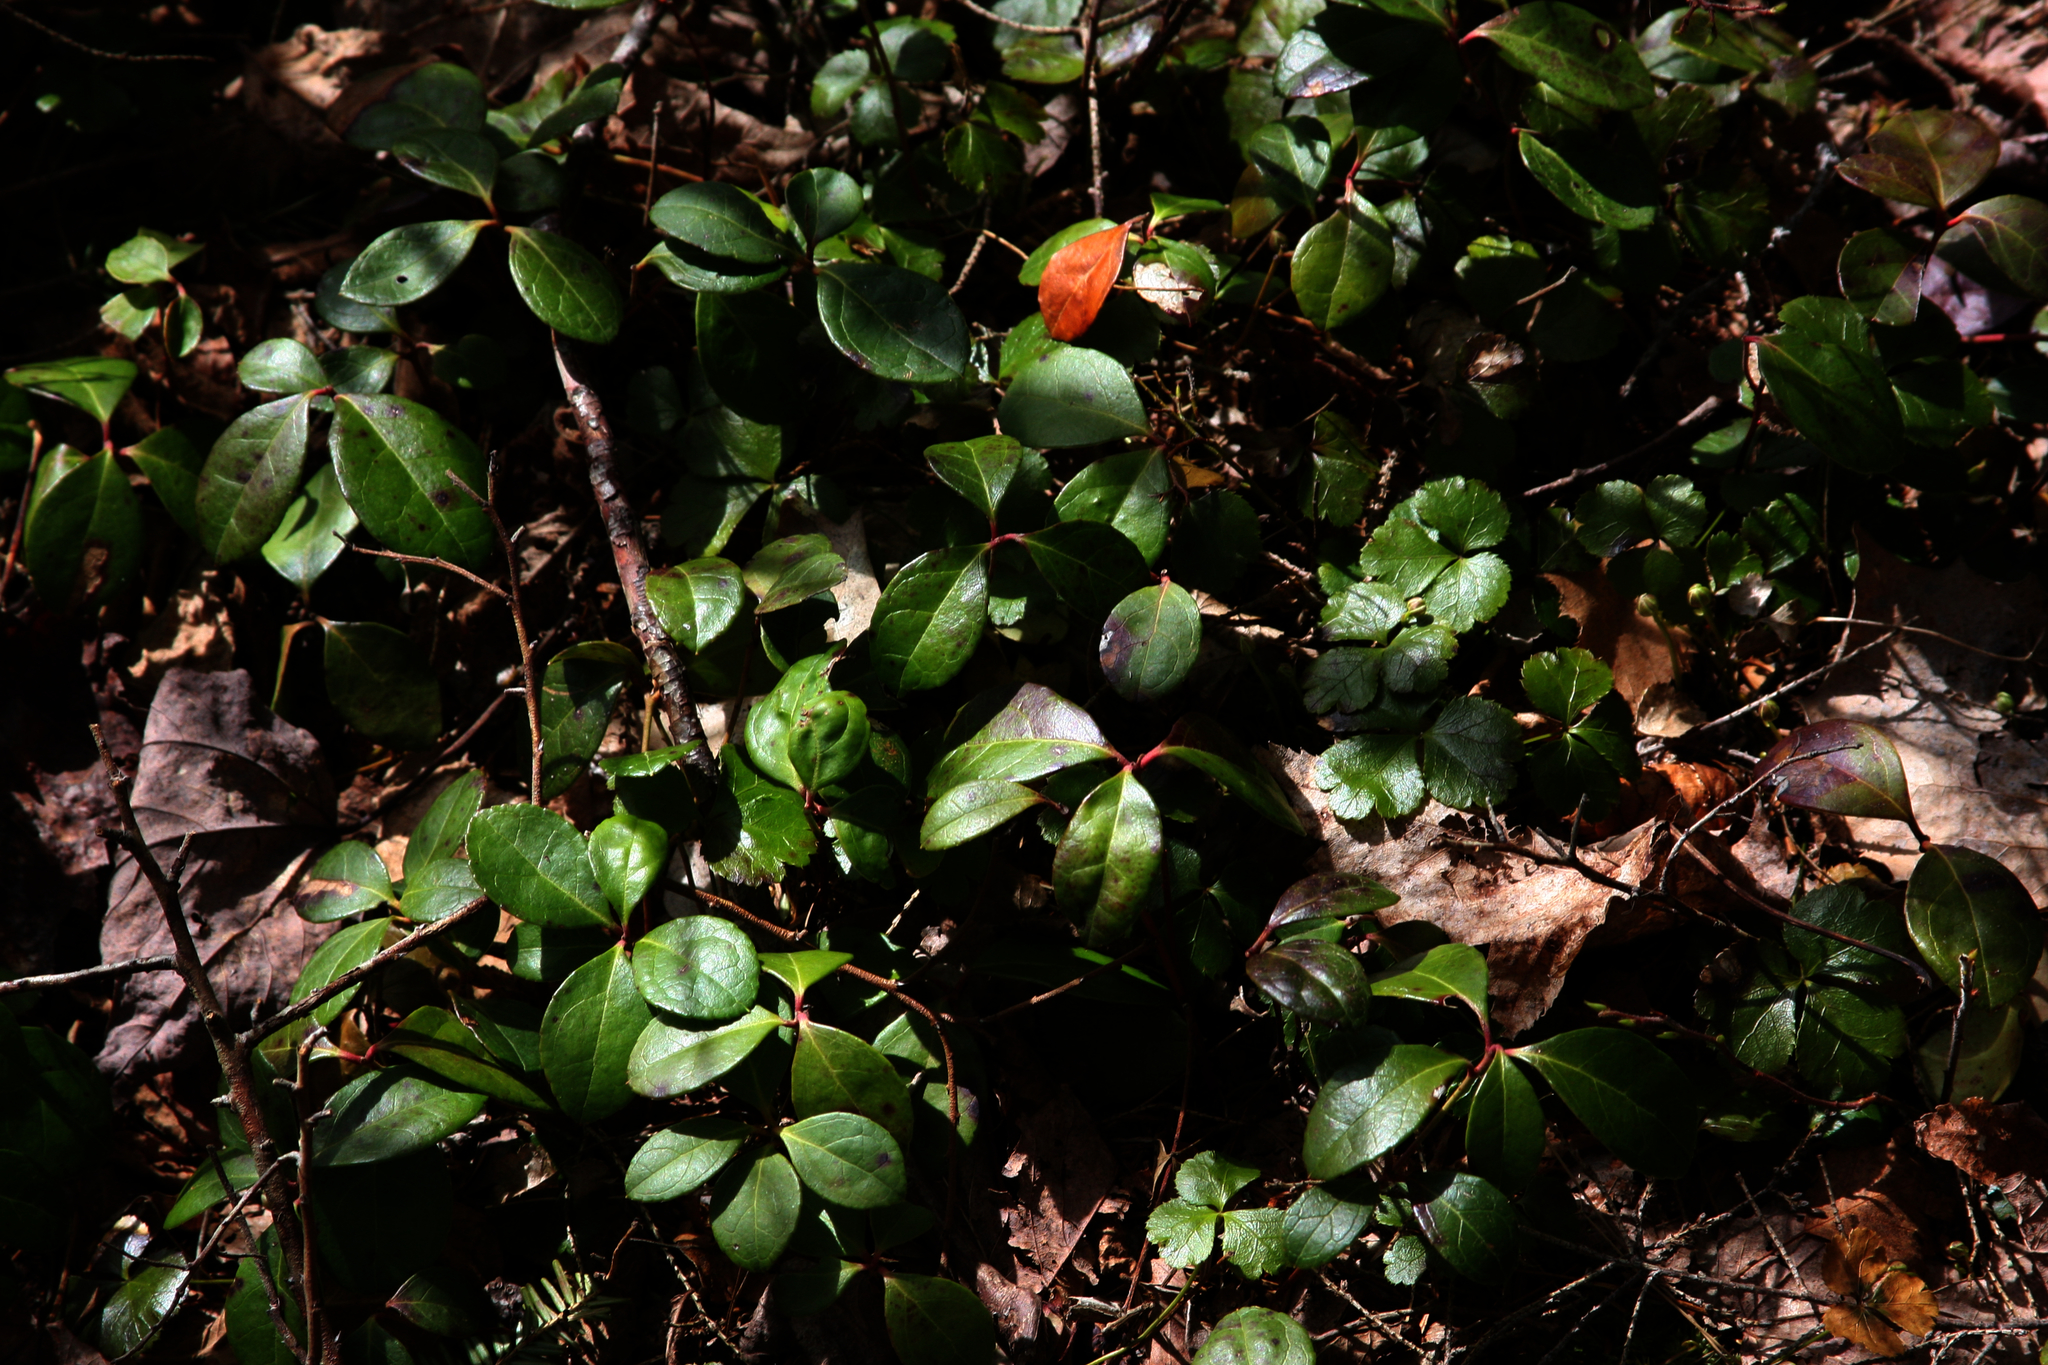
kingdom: Plantae
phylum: Tracheophyta
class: Magnoliopsida
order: Ericales
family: Ericaceae
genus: Gaultheria
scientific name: Gaultheria procumbens
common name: Checkerberry
